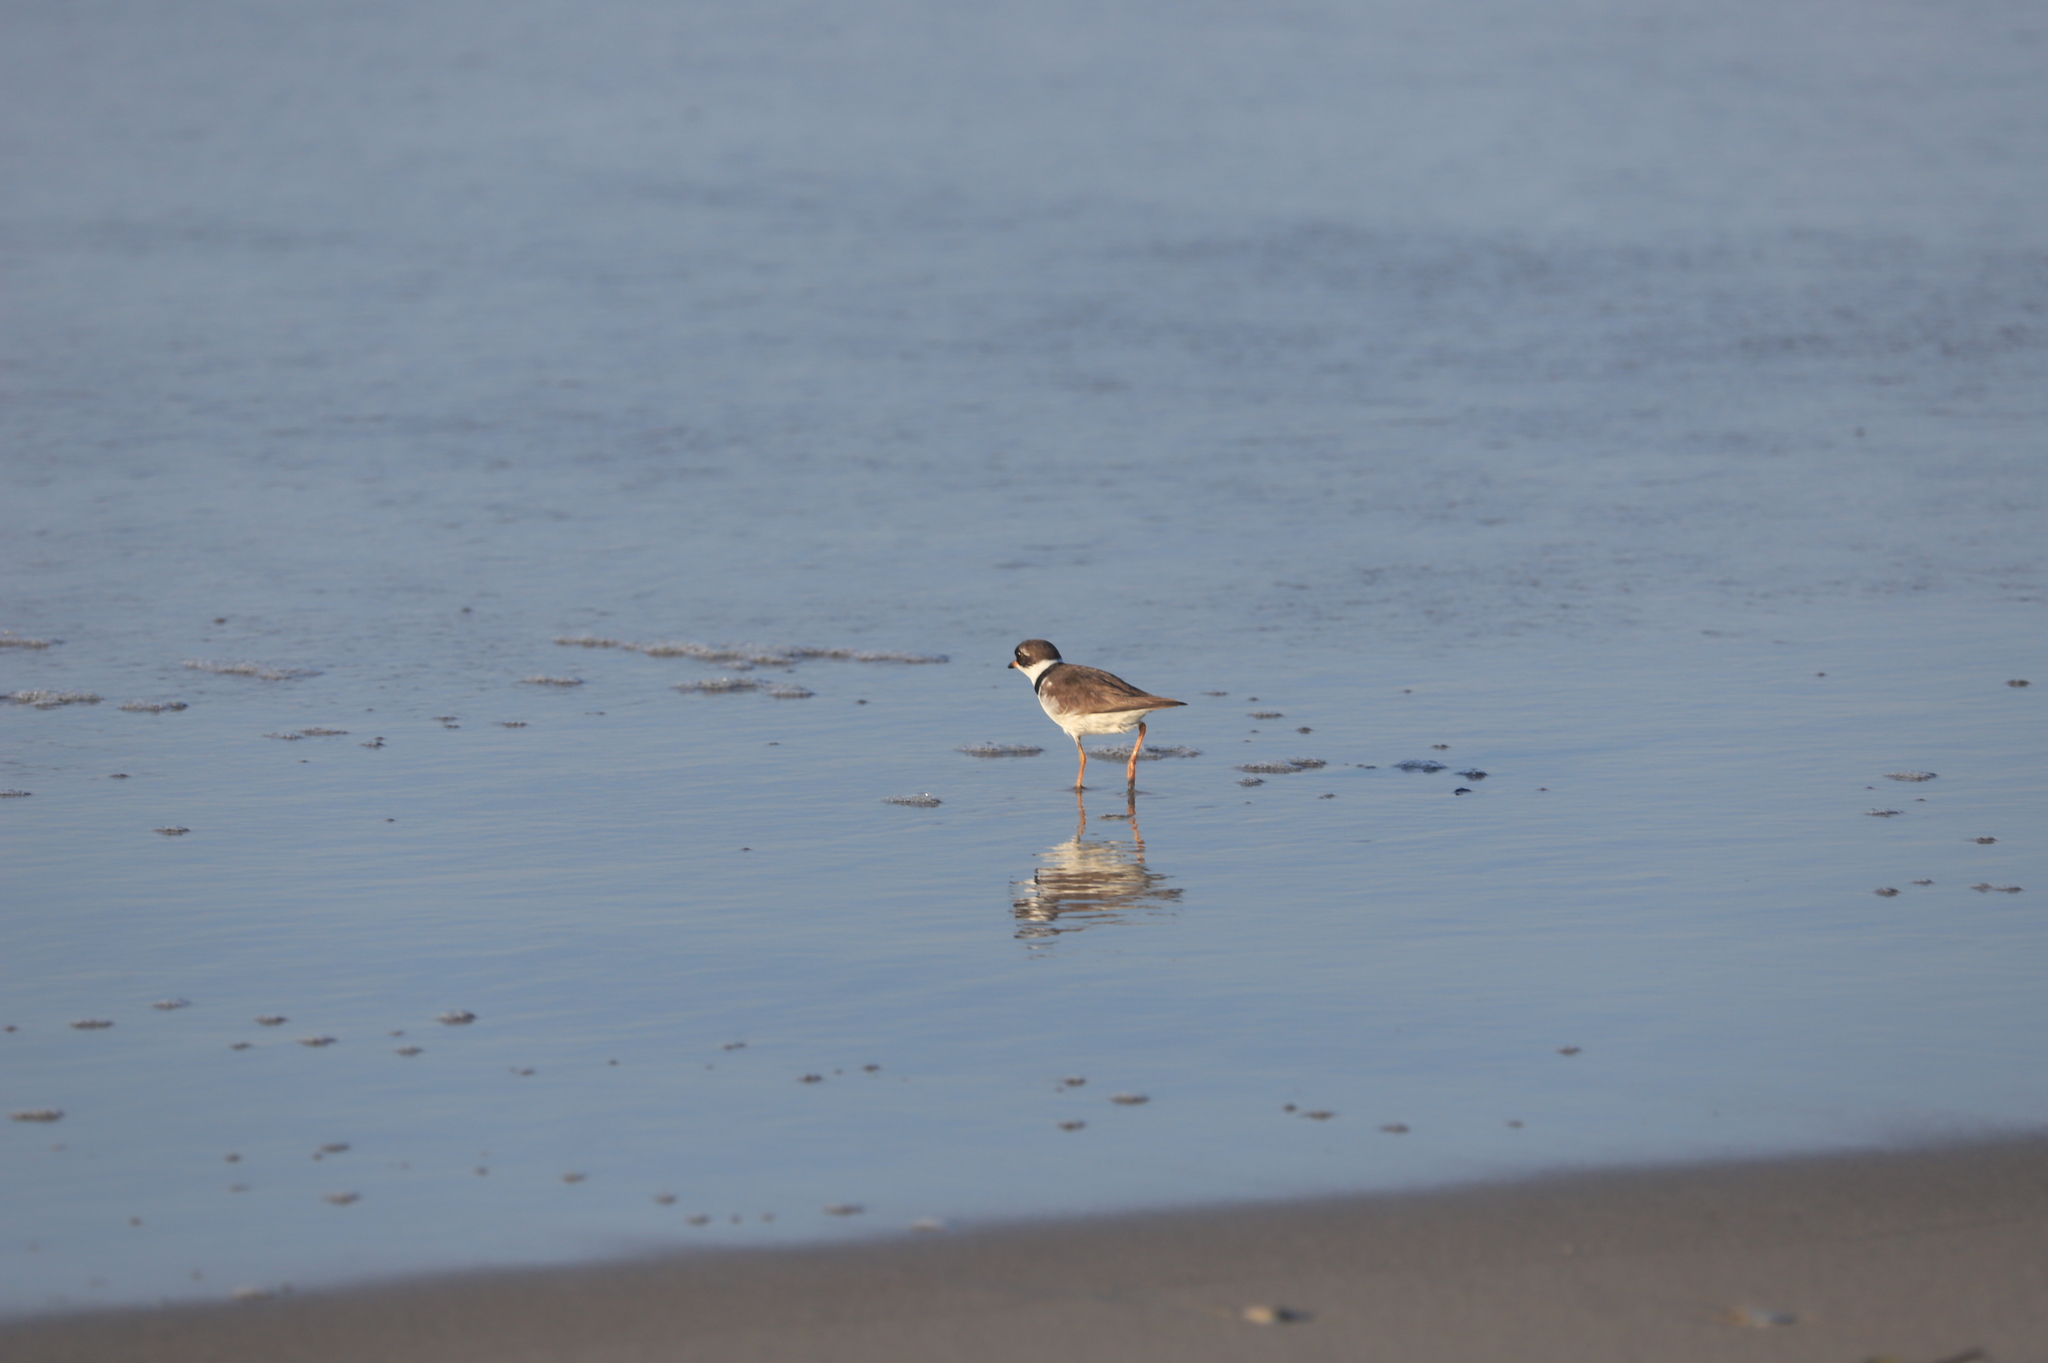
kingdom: Animalia
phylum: Chordata
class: Aves
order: Charadriiformes
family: Charadriidae
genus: Charadrius
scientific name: Charadrius semipalmatus
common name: Semipalmated plover
